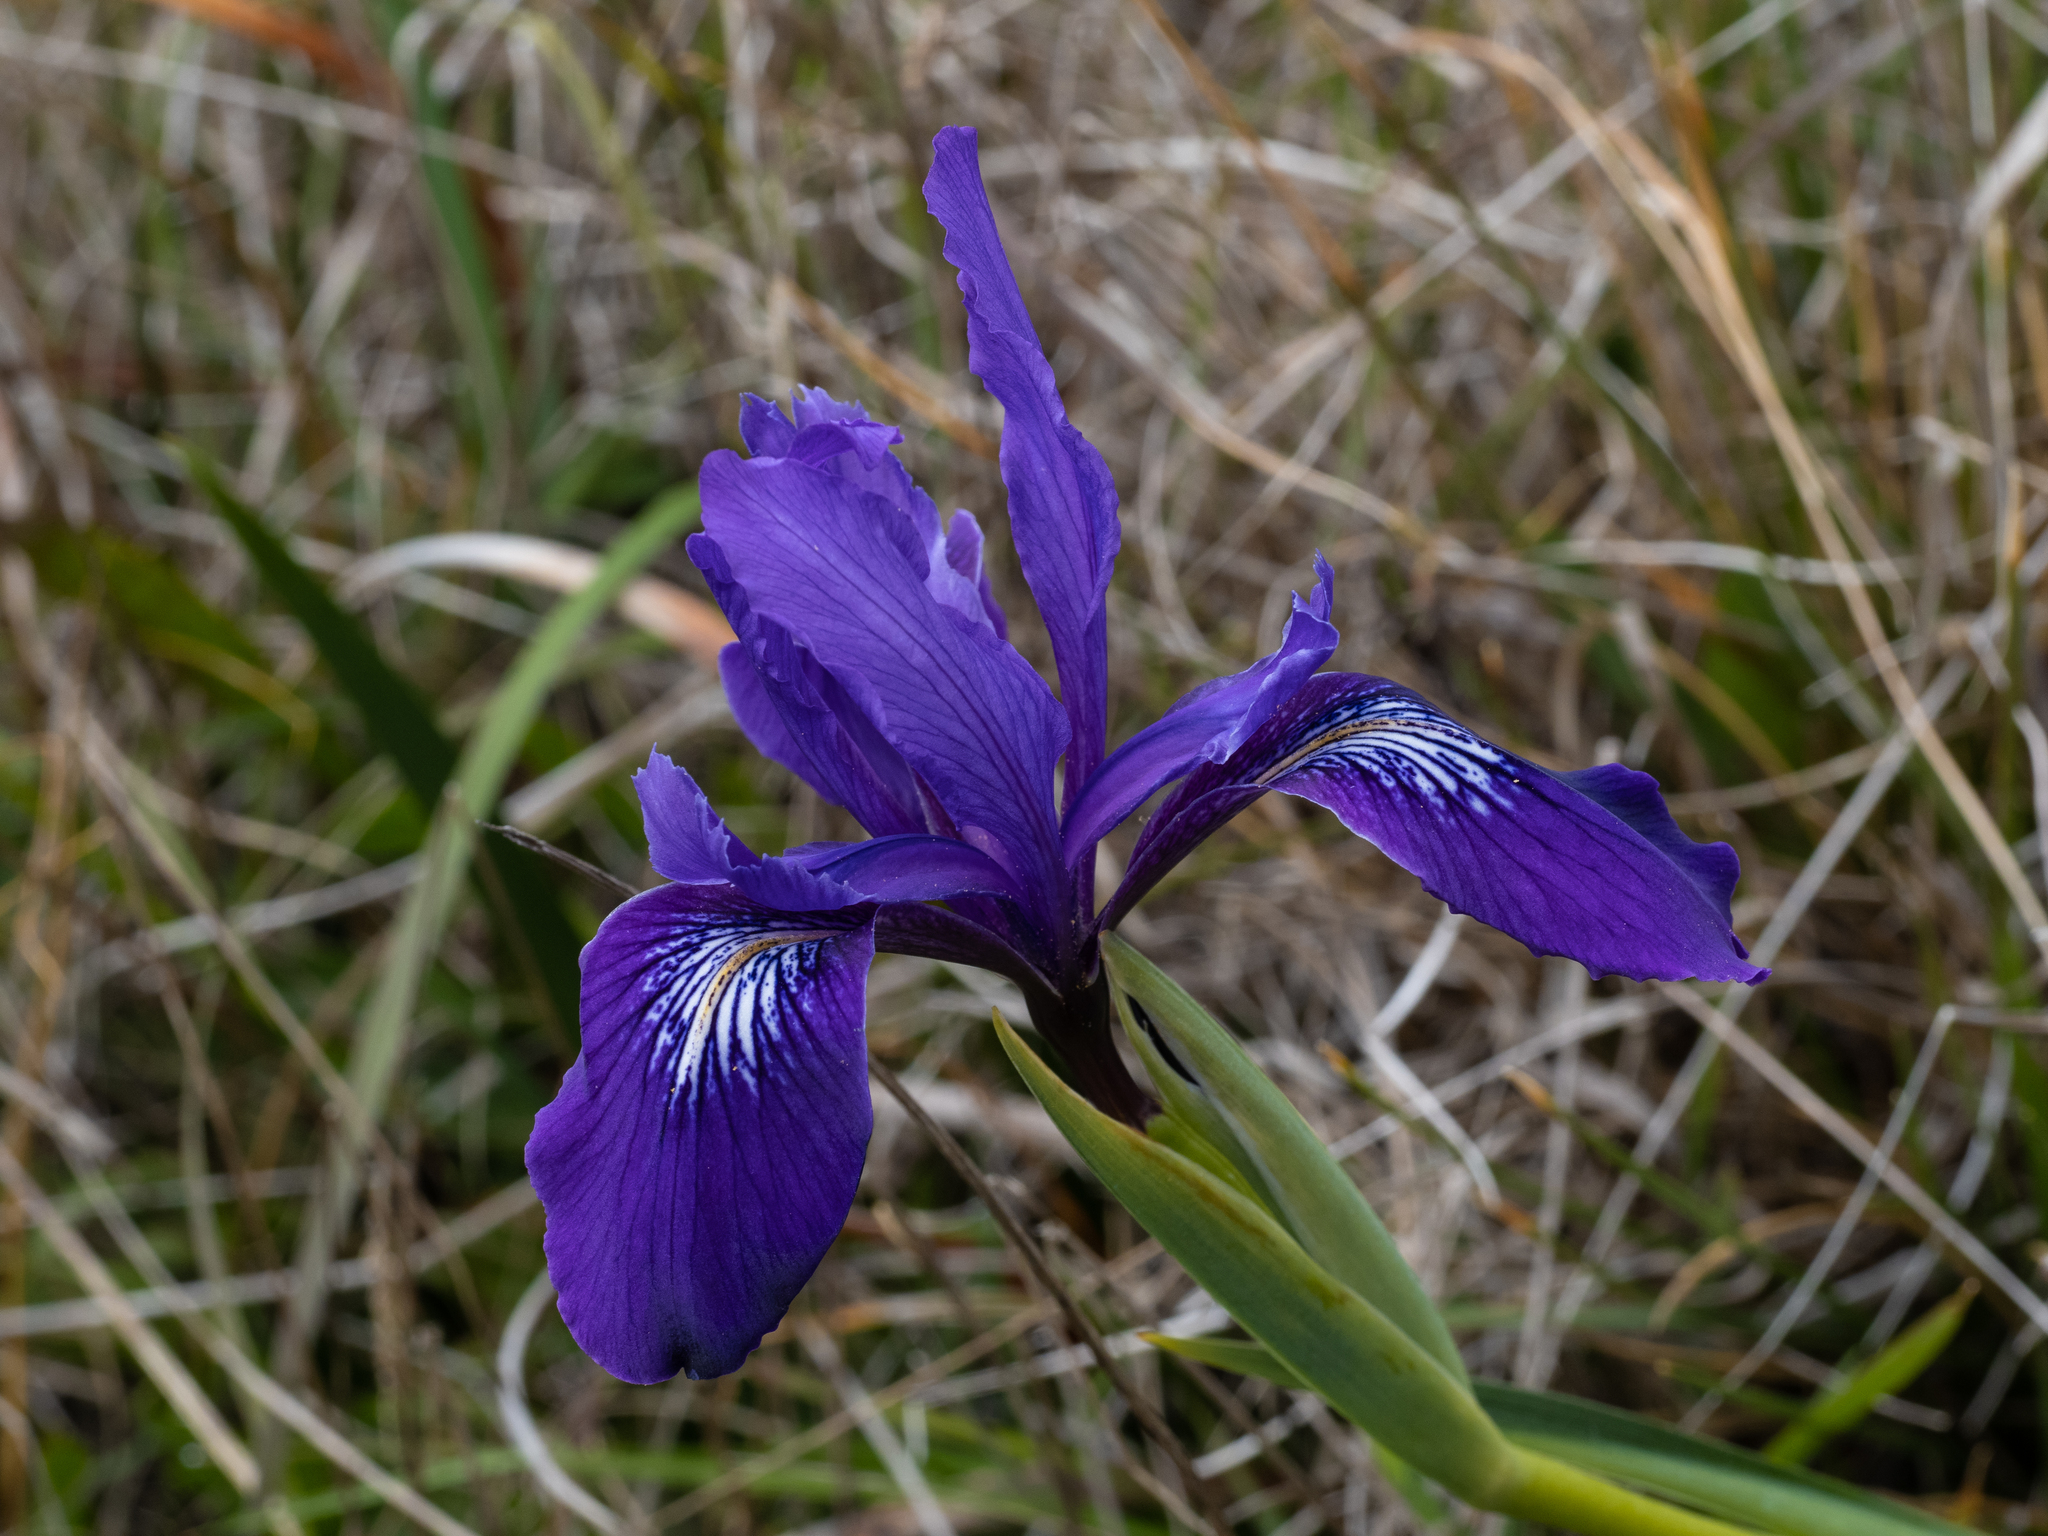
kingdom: Plantae
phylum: Tracheophyta
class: Liliopsida
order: Asparagales
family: Iridaceae
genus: Iris
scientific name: Iris douglasiana
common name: Marin iris
